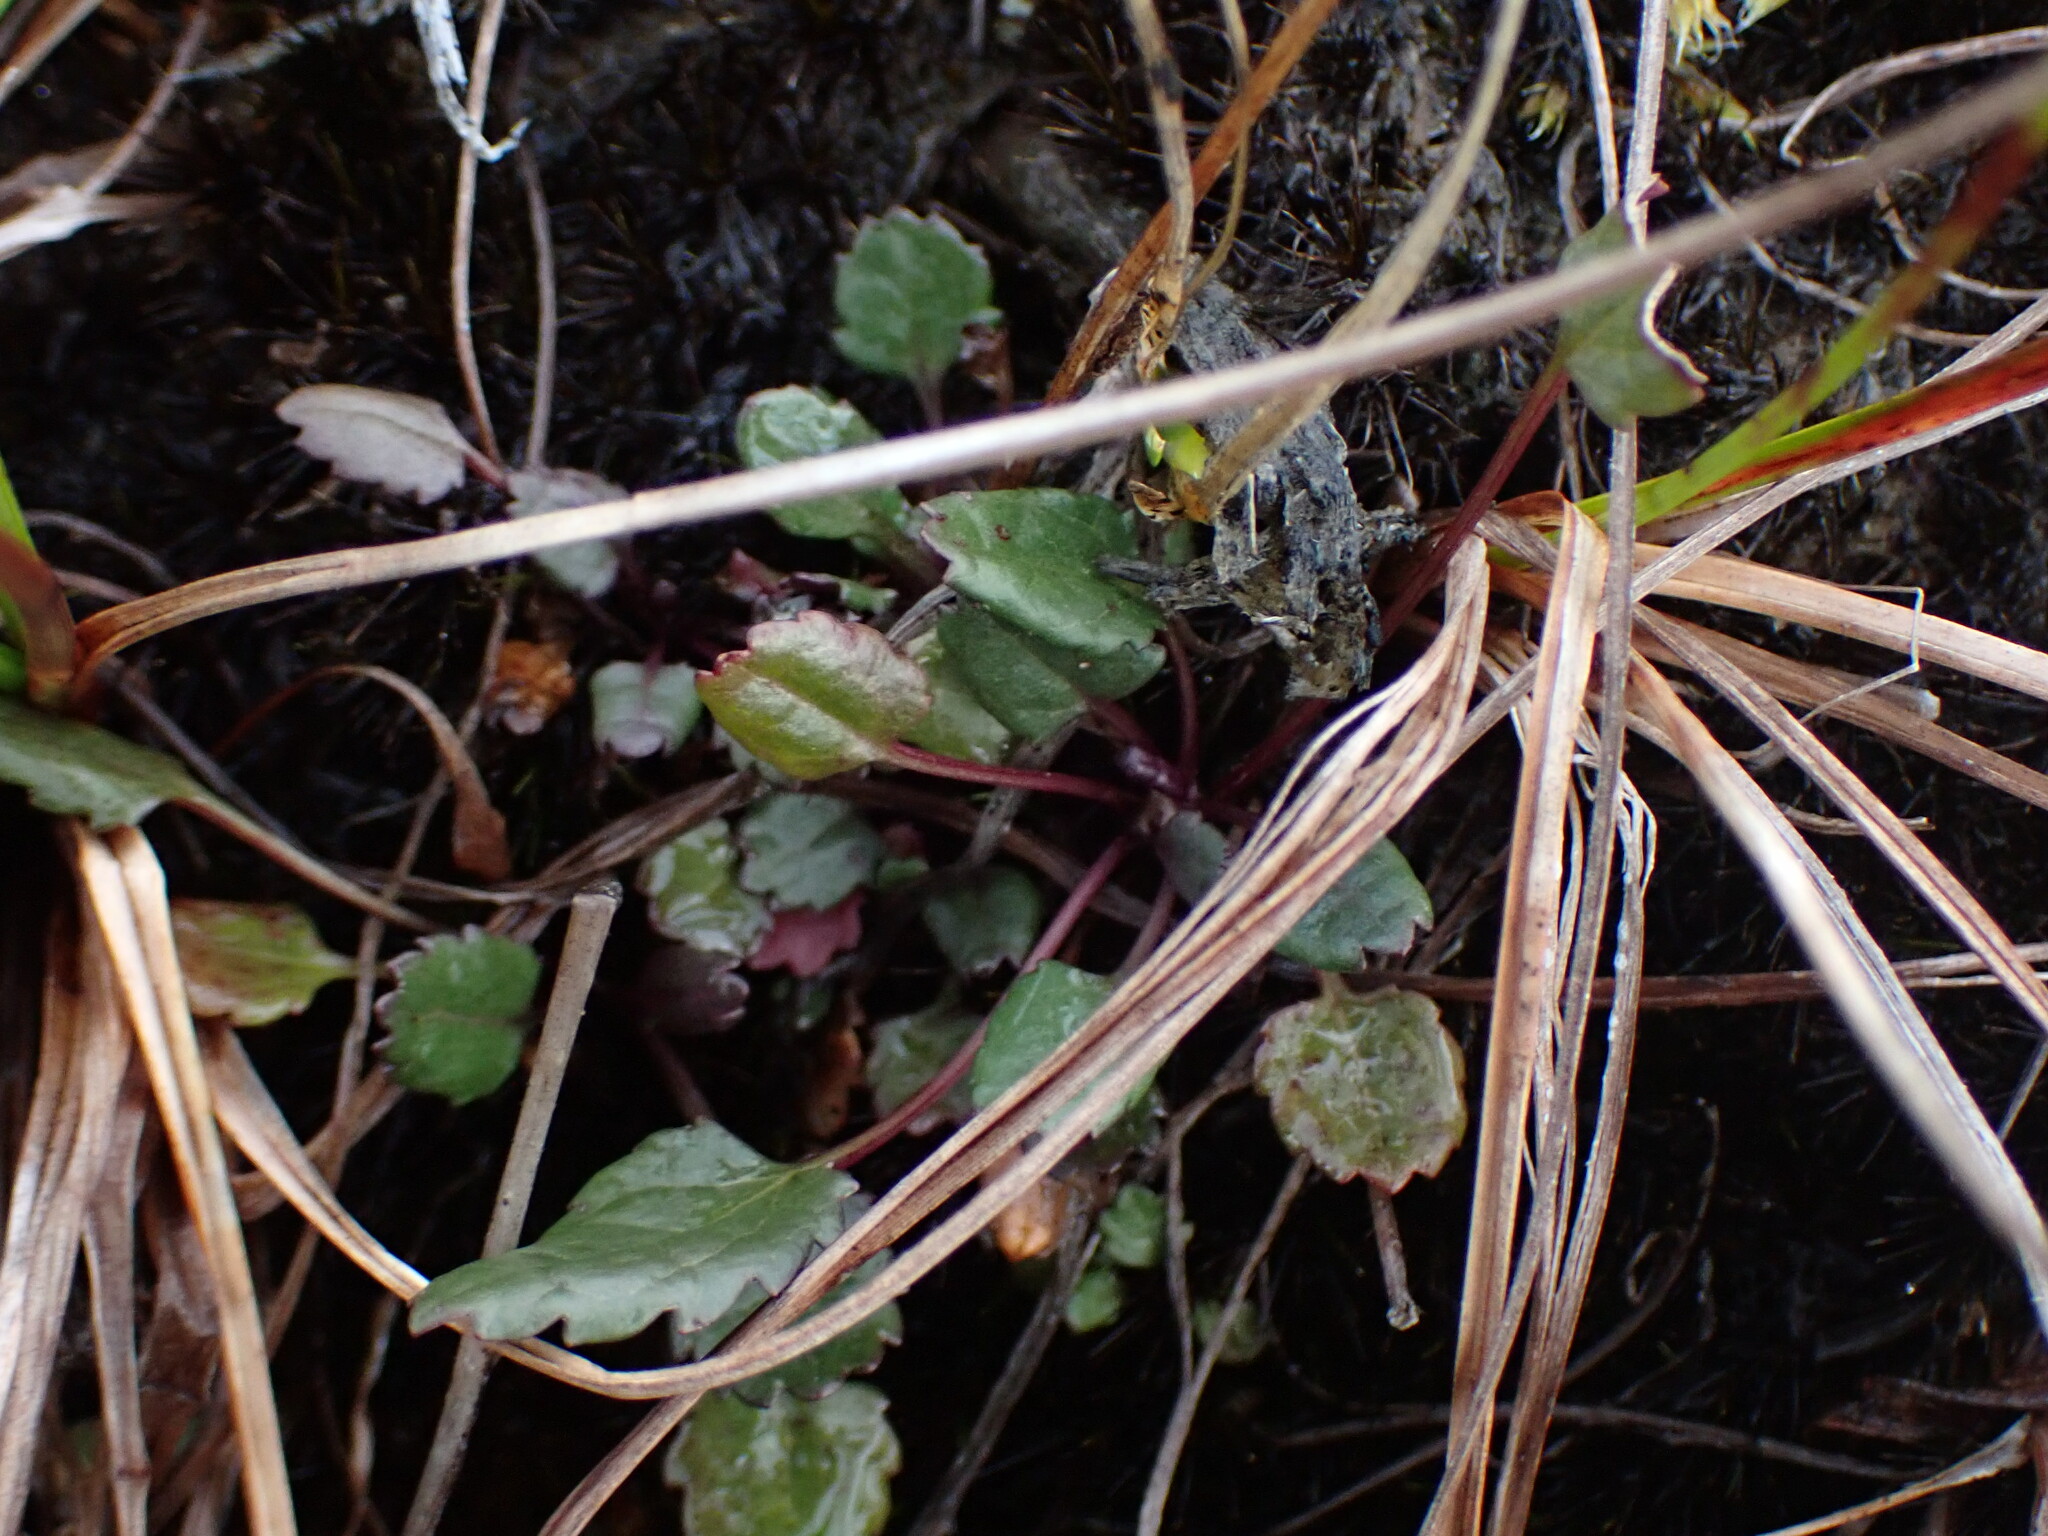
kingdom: Plantae
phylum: Tracheophyta
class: Magnoliopsida
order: Asterales
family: Asteraceae
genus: Packera
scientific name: Packera subnuda
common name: Buek's groundsel
